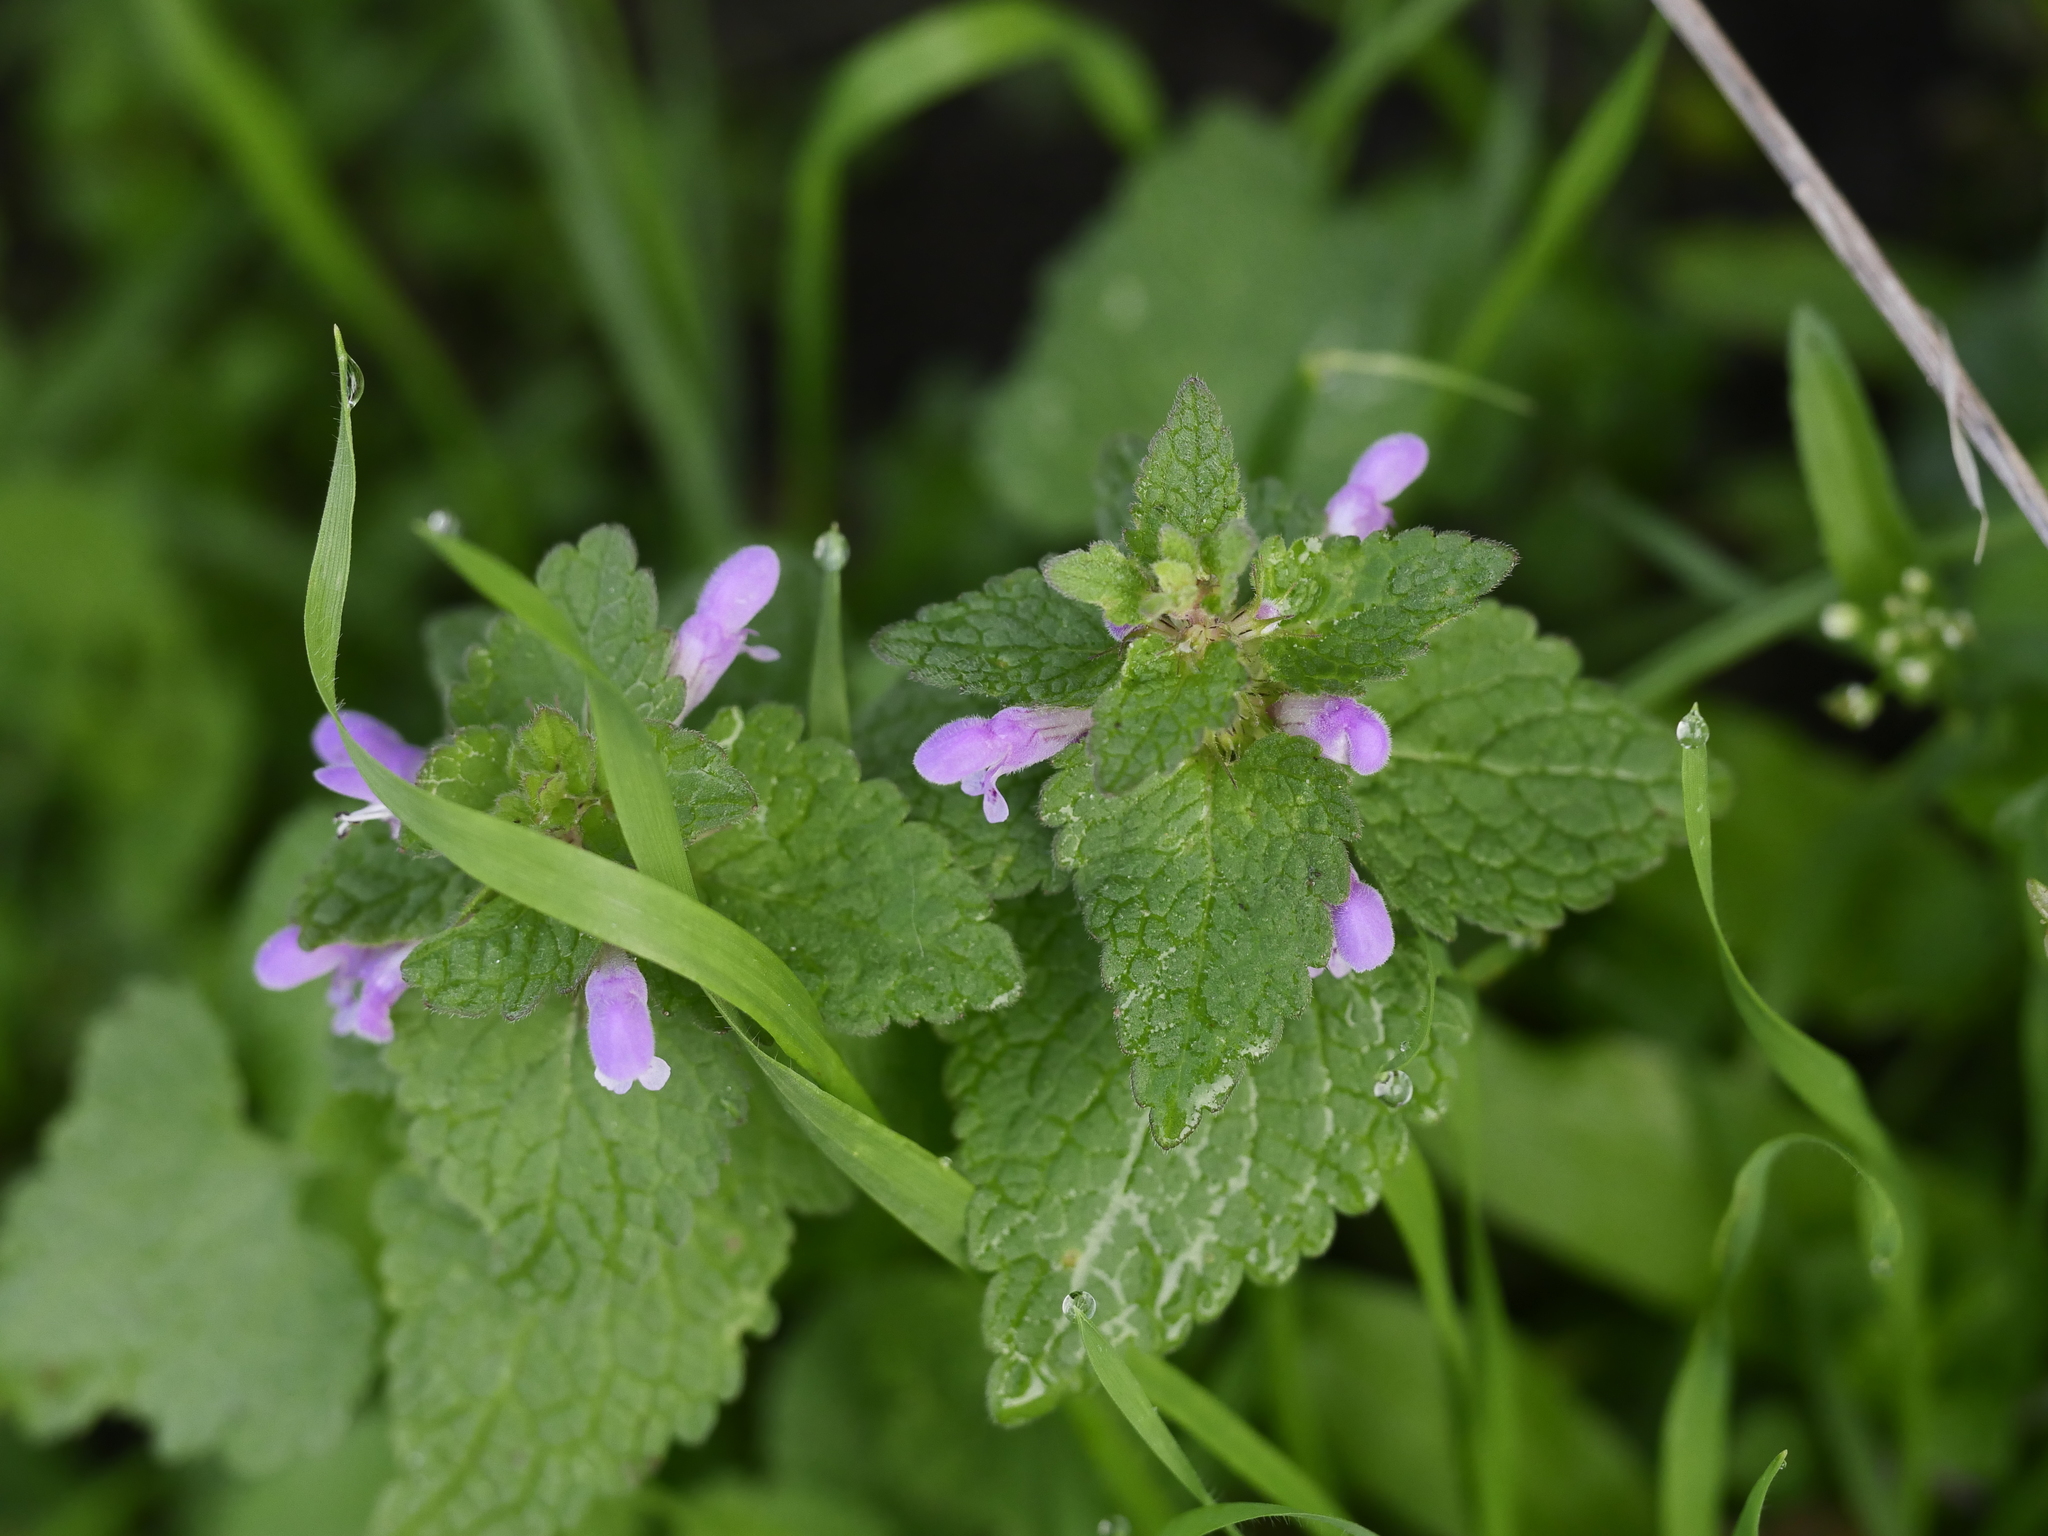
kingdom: Plantae
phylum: Tracheophyta
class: Magnoliopsida
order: Lamiales
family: Lamiaceae
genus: Lamium
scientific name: Lamium purpureum
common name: Red dead-nettle
